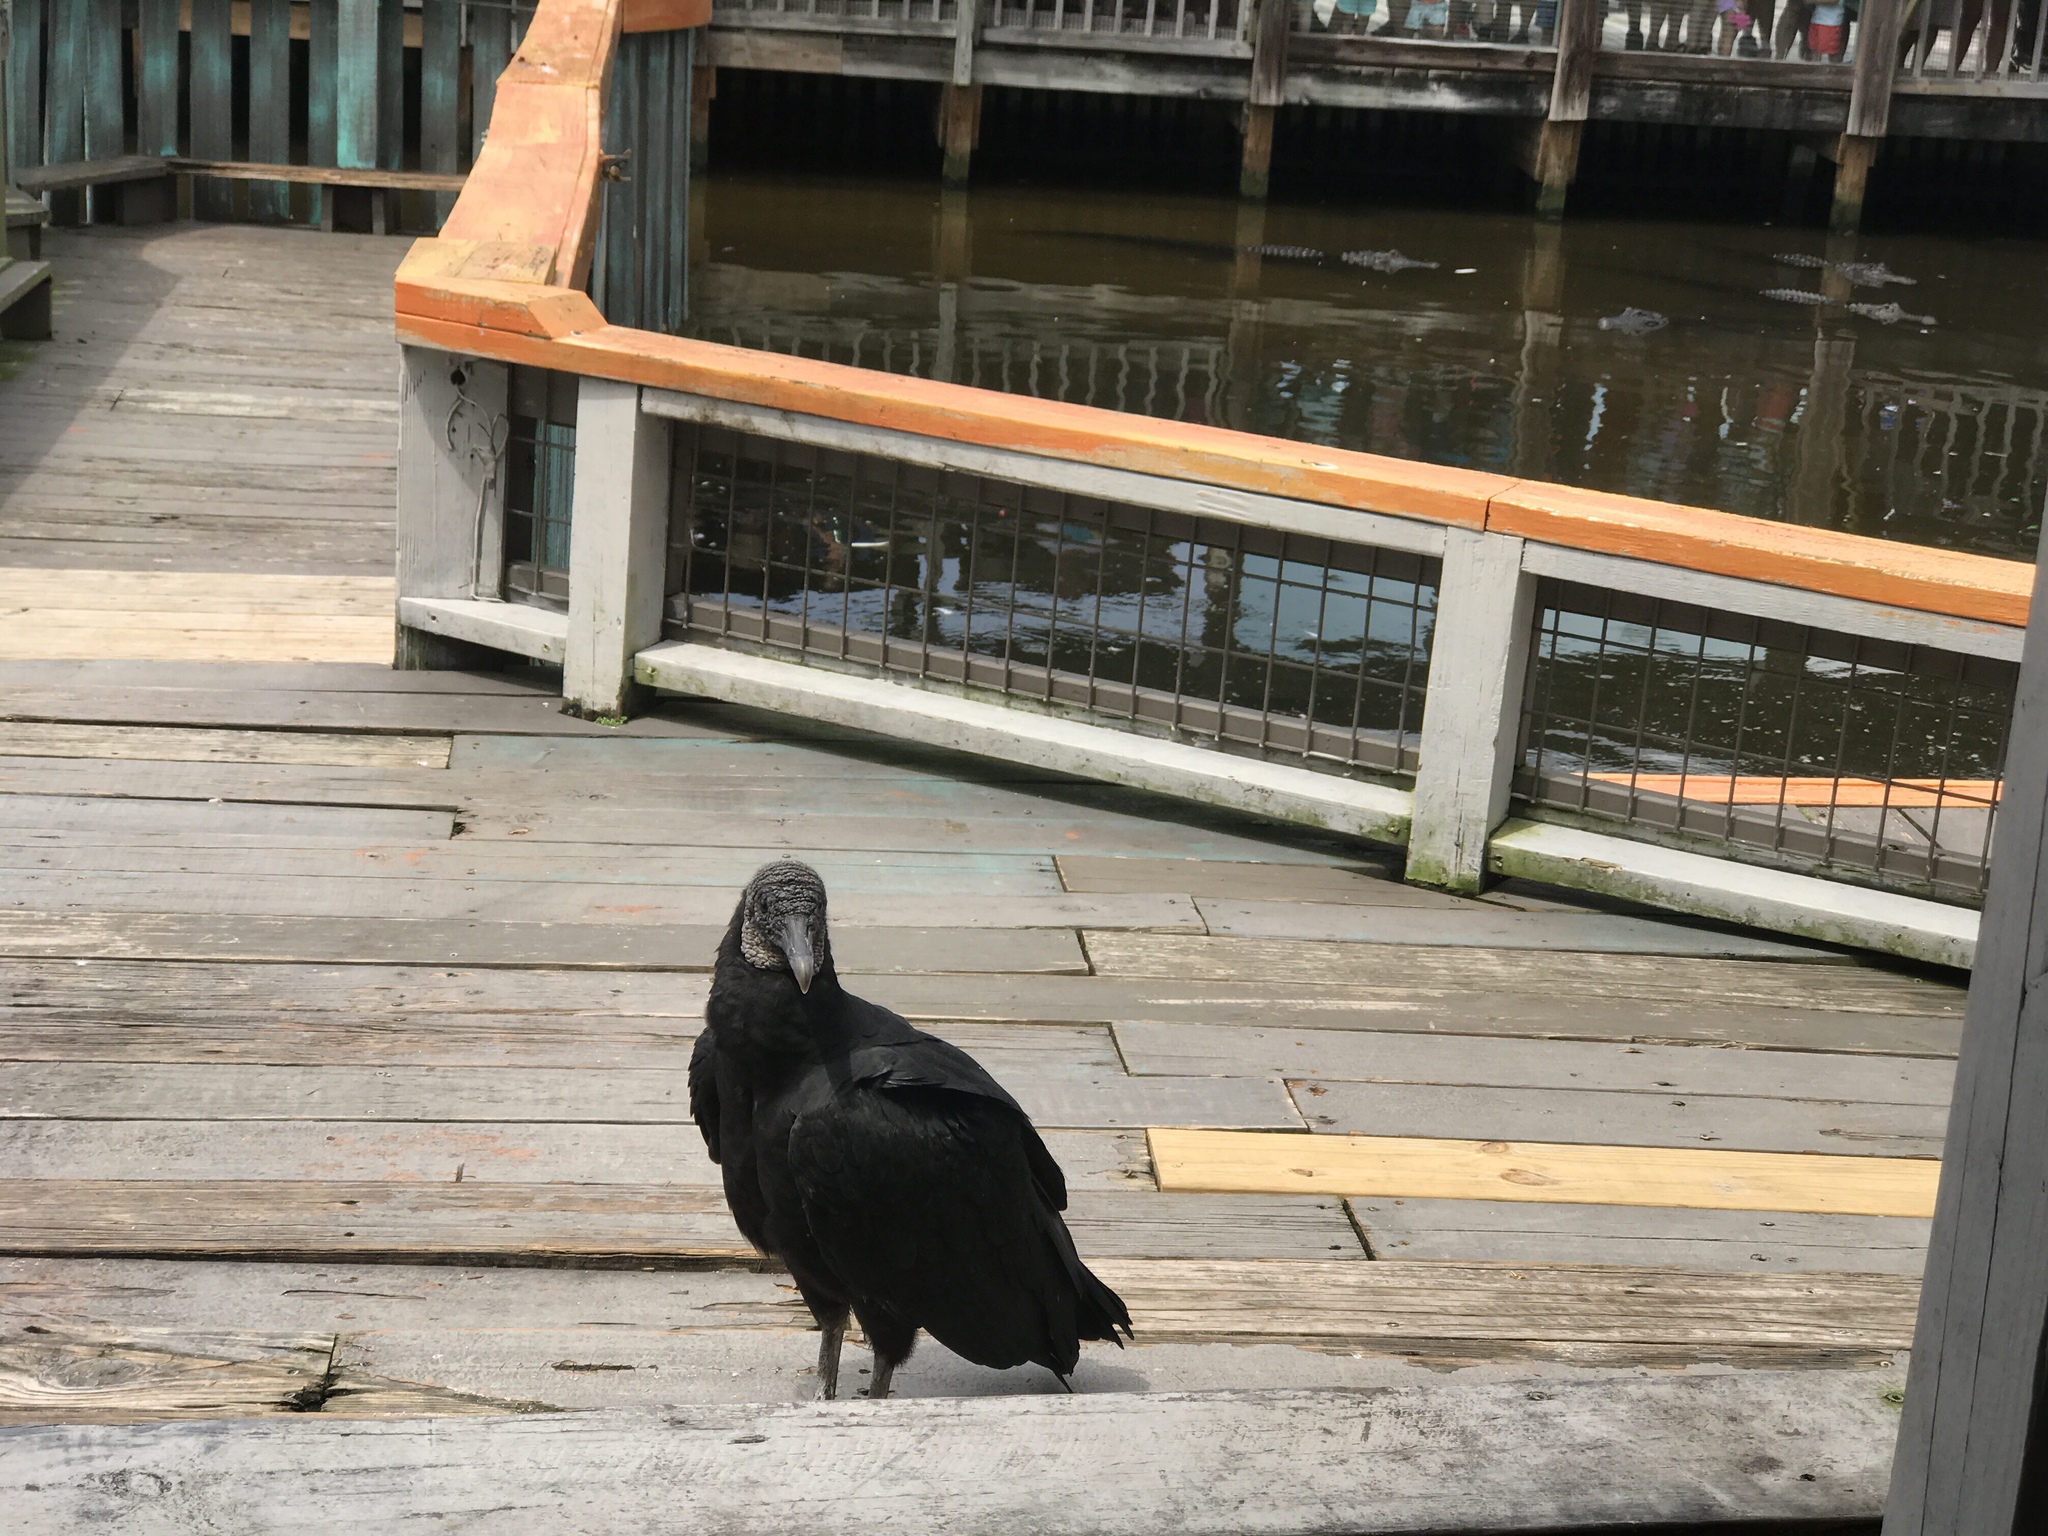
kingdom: Animalia
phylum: Chordata
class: Aves
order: Accipitriformes
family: Cathartidae
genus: Coragyps
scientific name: Coragyps atratus
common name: Black vulture
